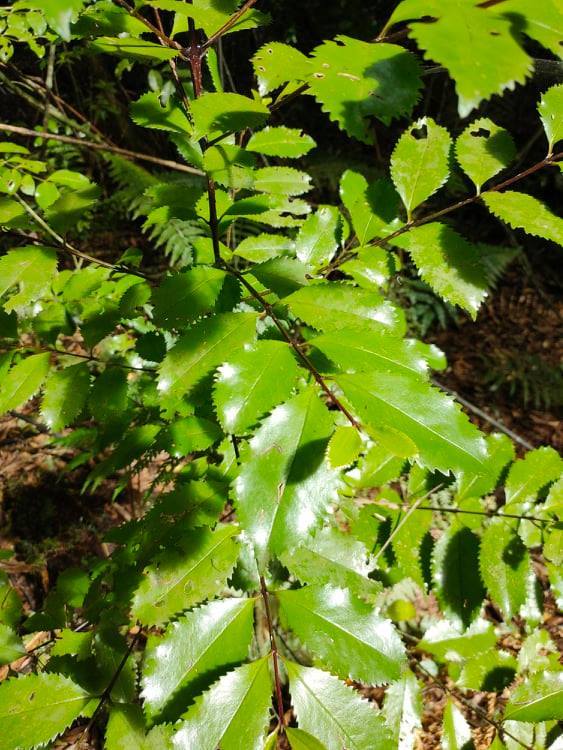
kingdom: Plantae
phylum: Tracheophyta
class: Magnoliopsida
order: Laurales
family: Atherospermataceae
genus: Laurelia
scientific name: Laurelia novae-zelandiae
